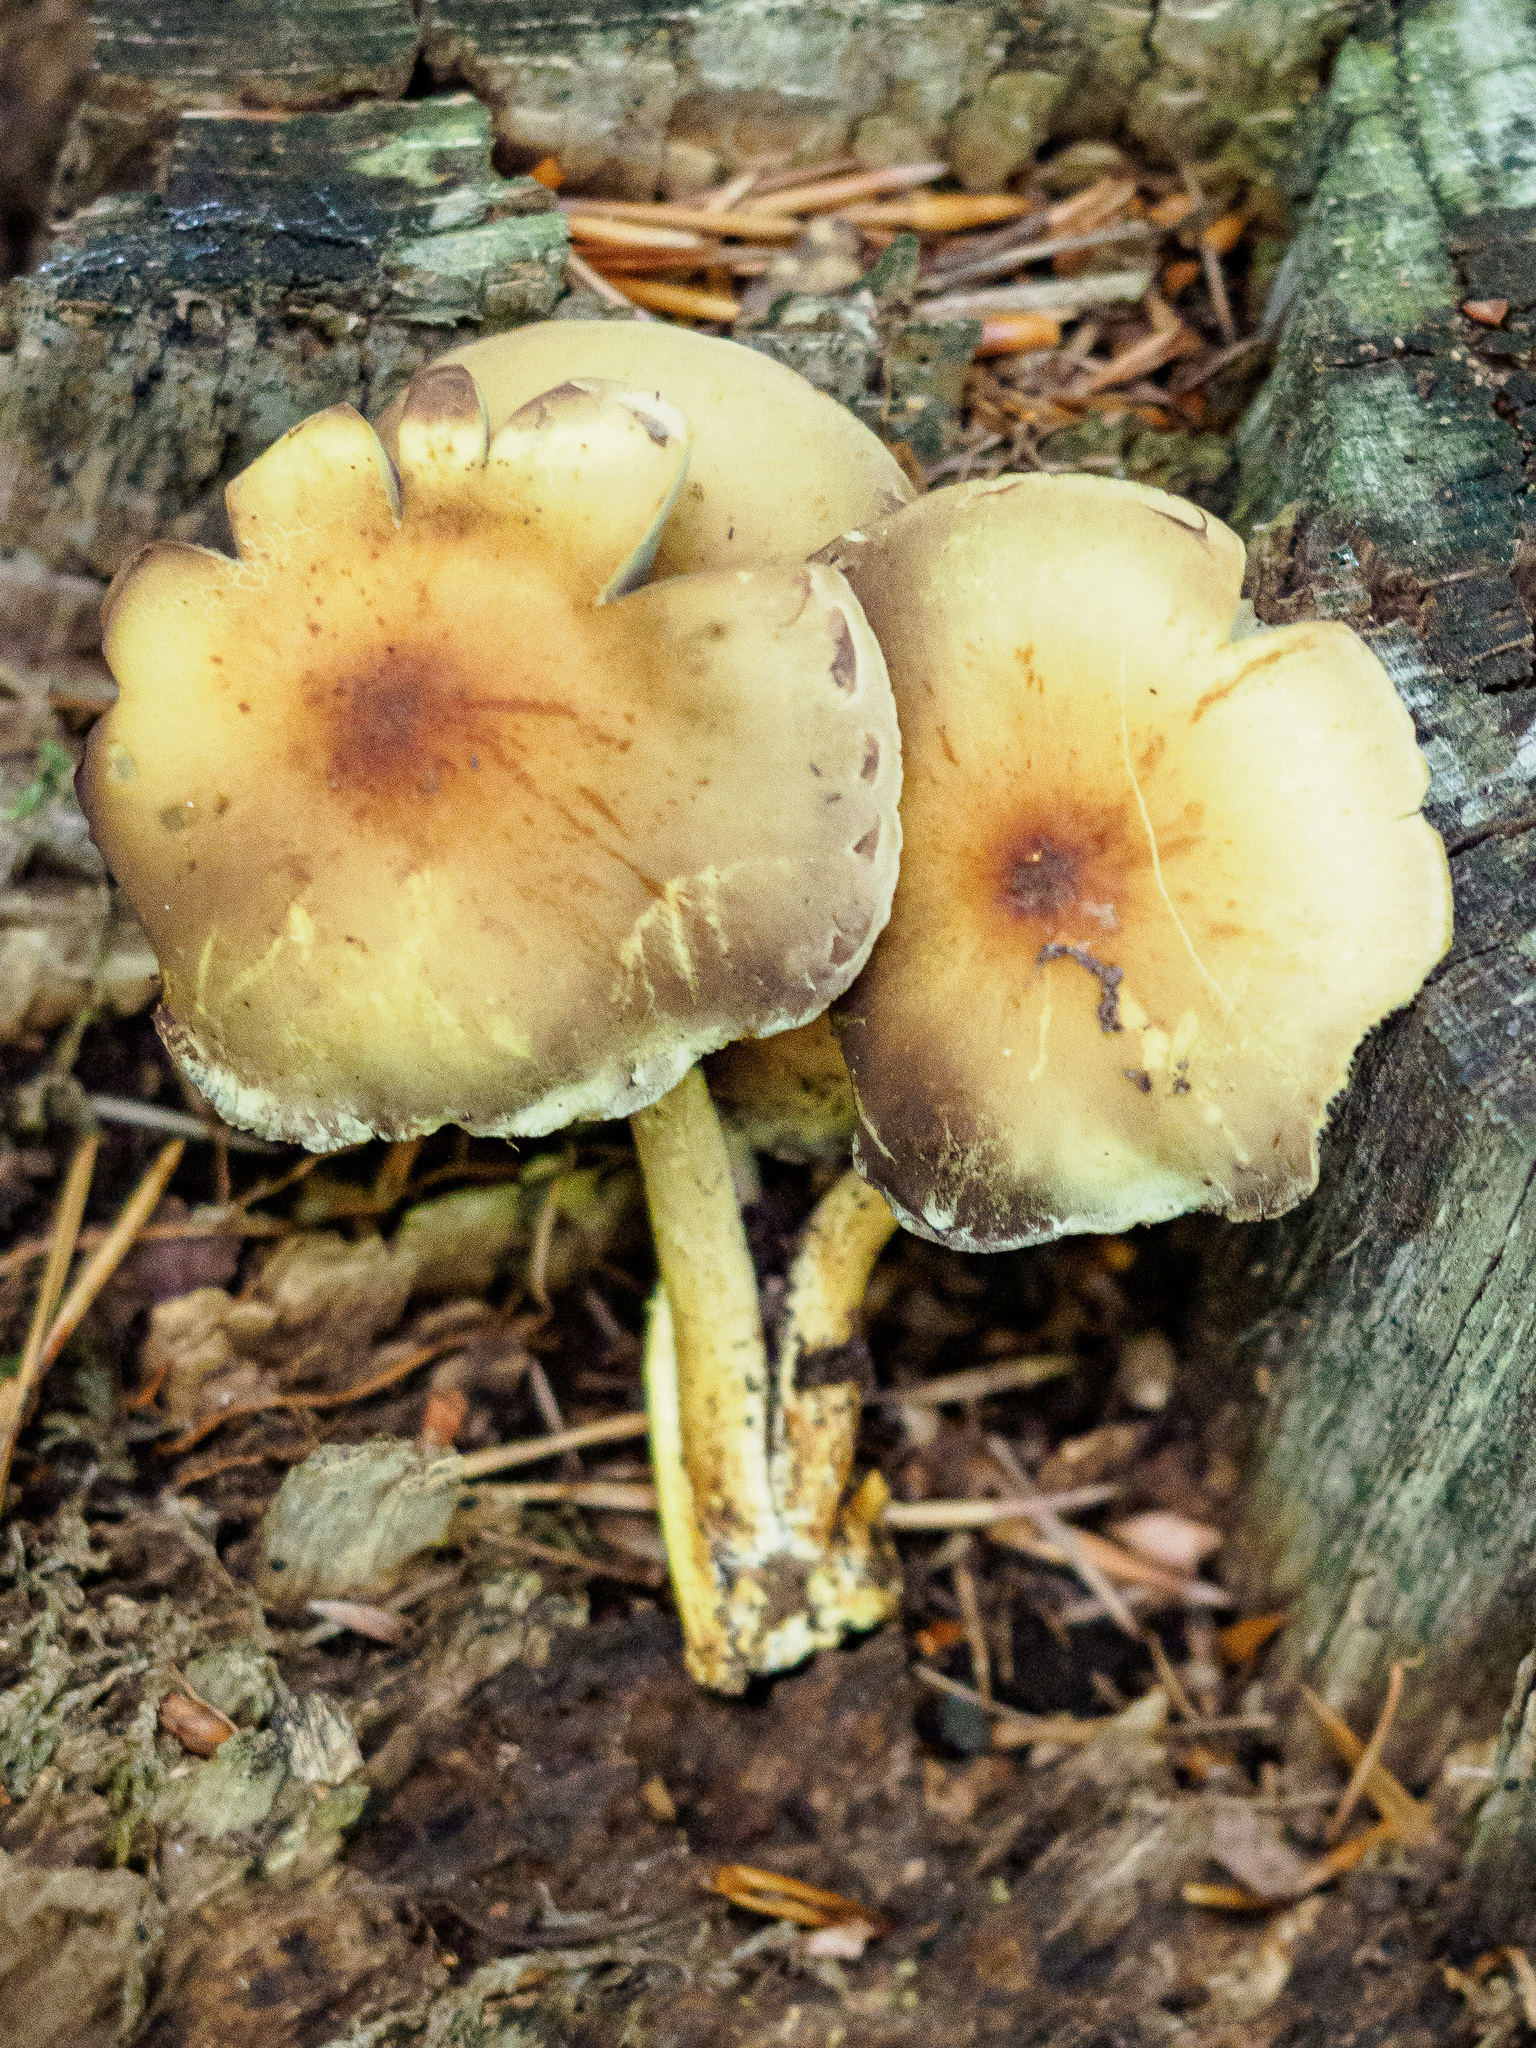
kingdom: Fungi
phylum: Basidiomycota
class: Agaricomycetes
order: Agaricales
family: Strophariaceae
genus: Hypholoma
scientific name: Hypholoma fasciculare
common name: Sulphur tuft
